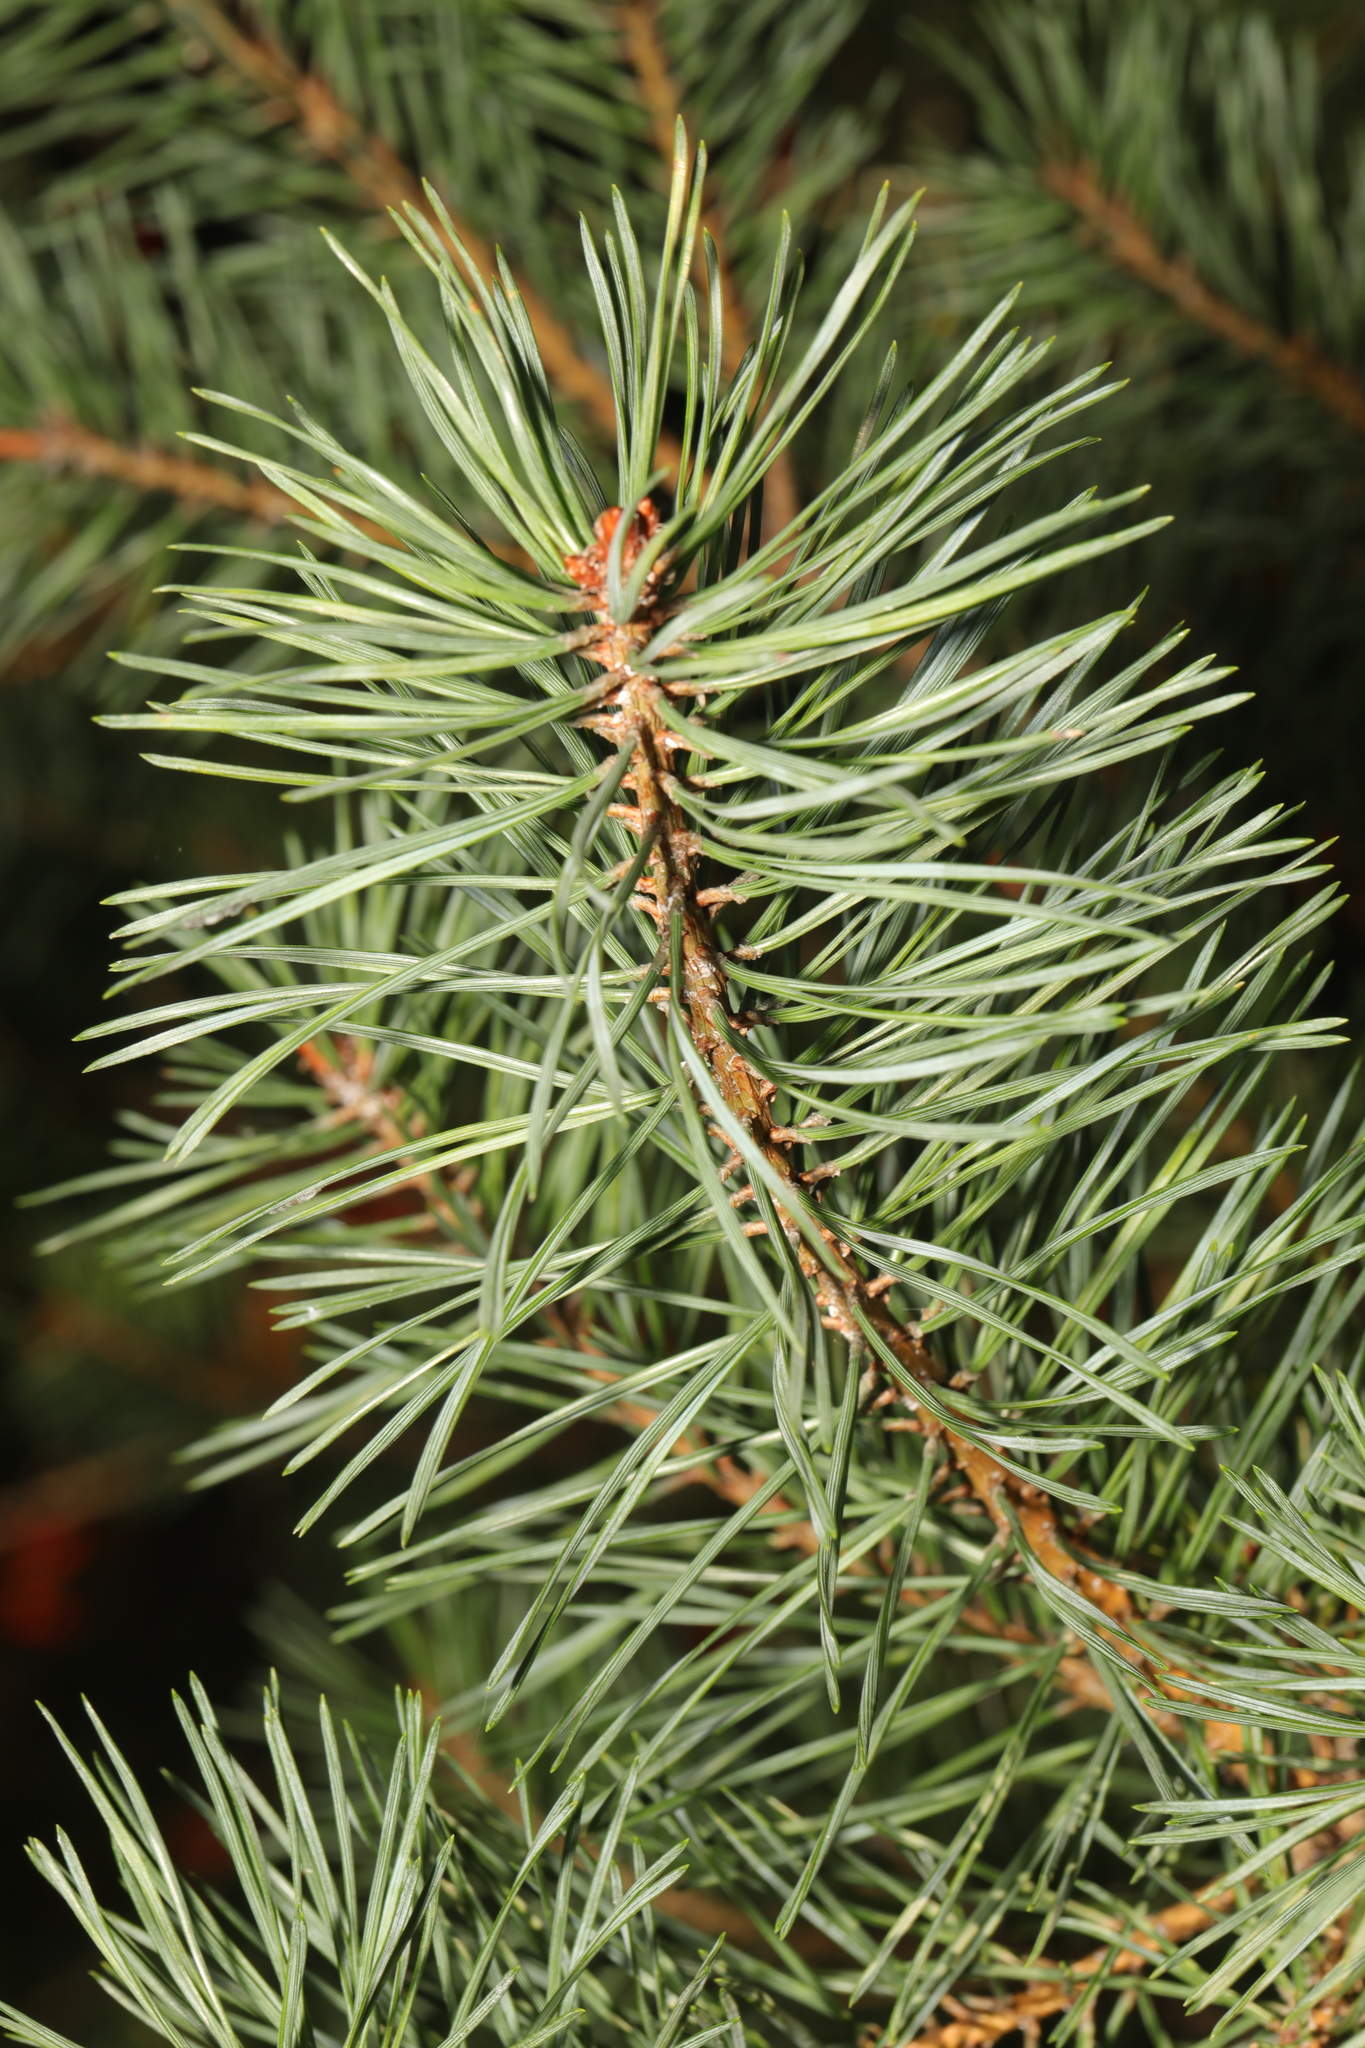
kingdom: Plantae
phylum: Tracheophyta
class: Pinopsida
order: Pinales
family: Pinaceae
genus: Pinus
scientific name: Pinus sylvestris
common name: Scots pine
